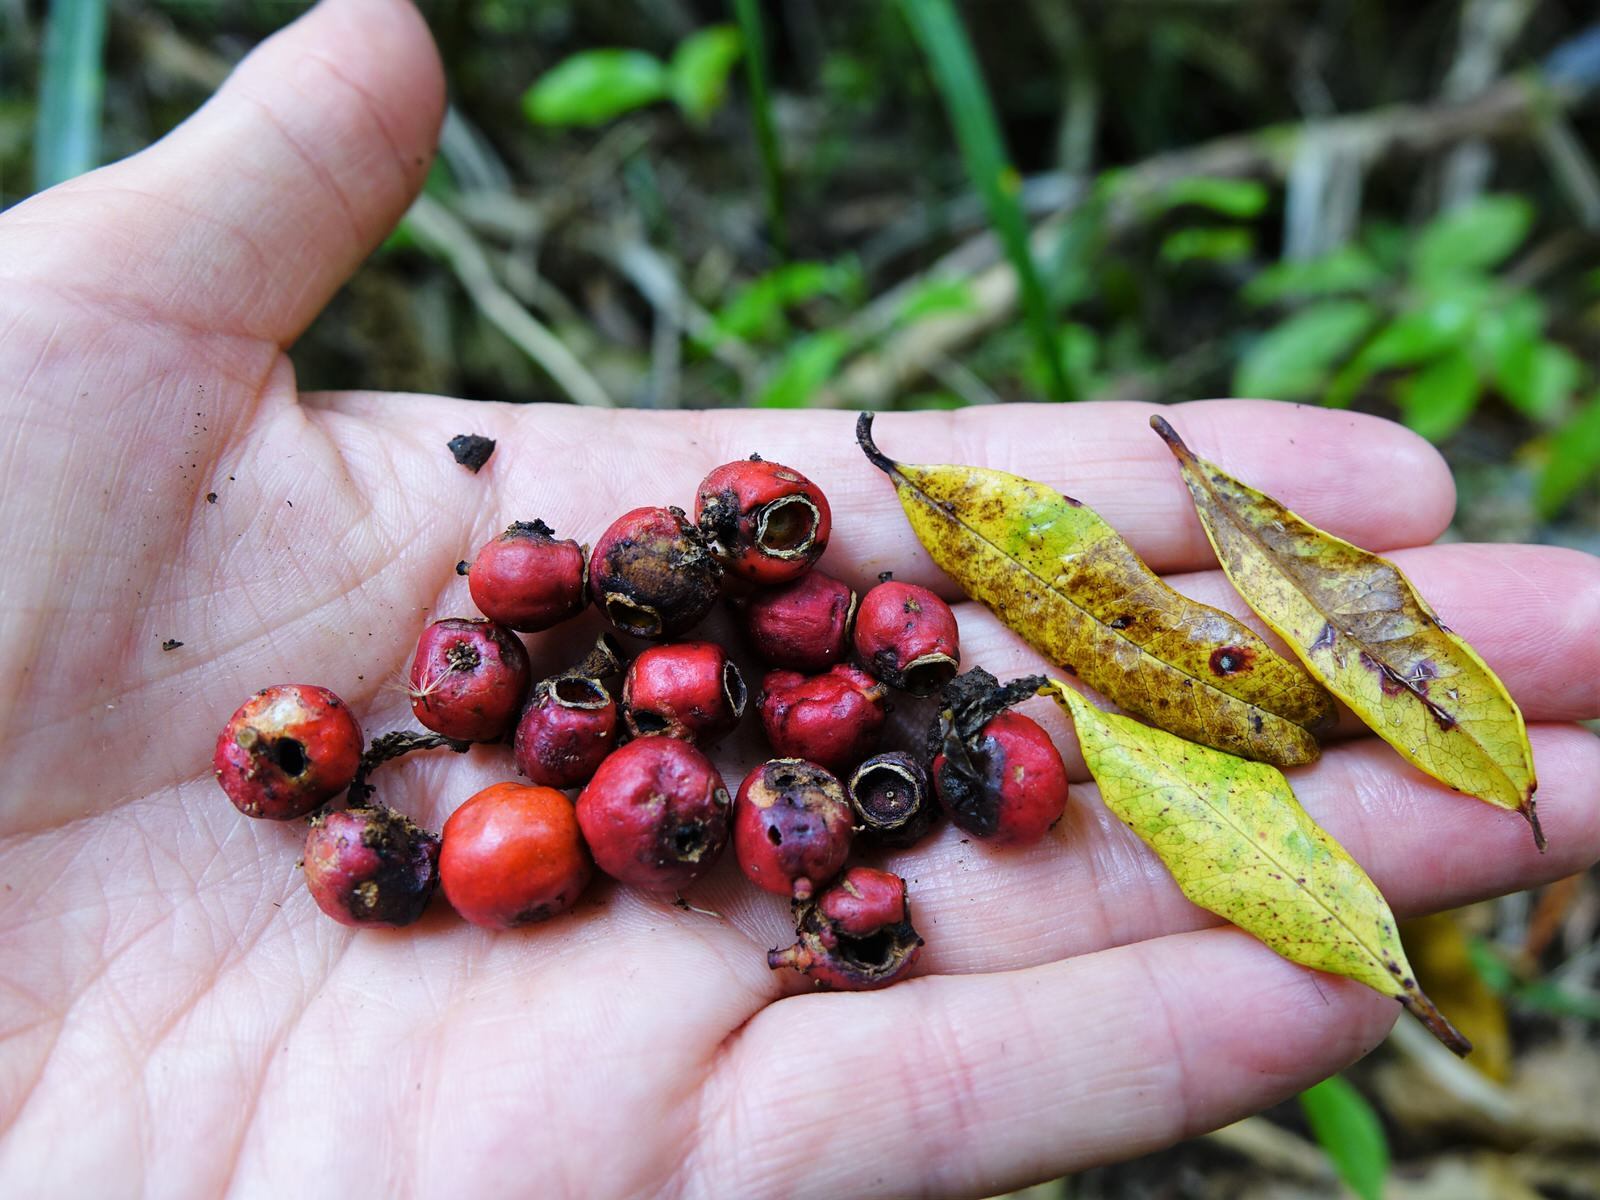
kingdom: Plantae
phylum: Tracheophyta
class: Magnoliopsida
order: Myrtales
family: Myrtaceae
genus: Syzygium
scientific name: Syzygium maire
